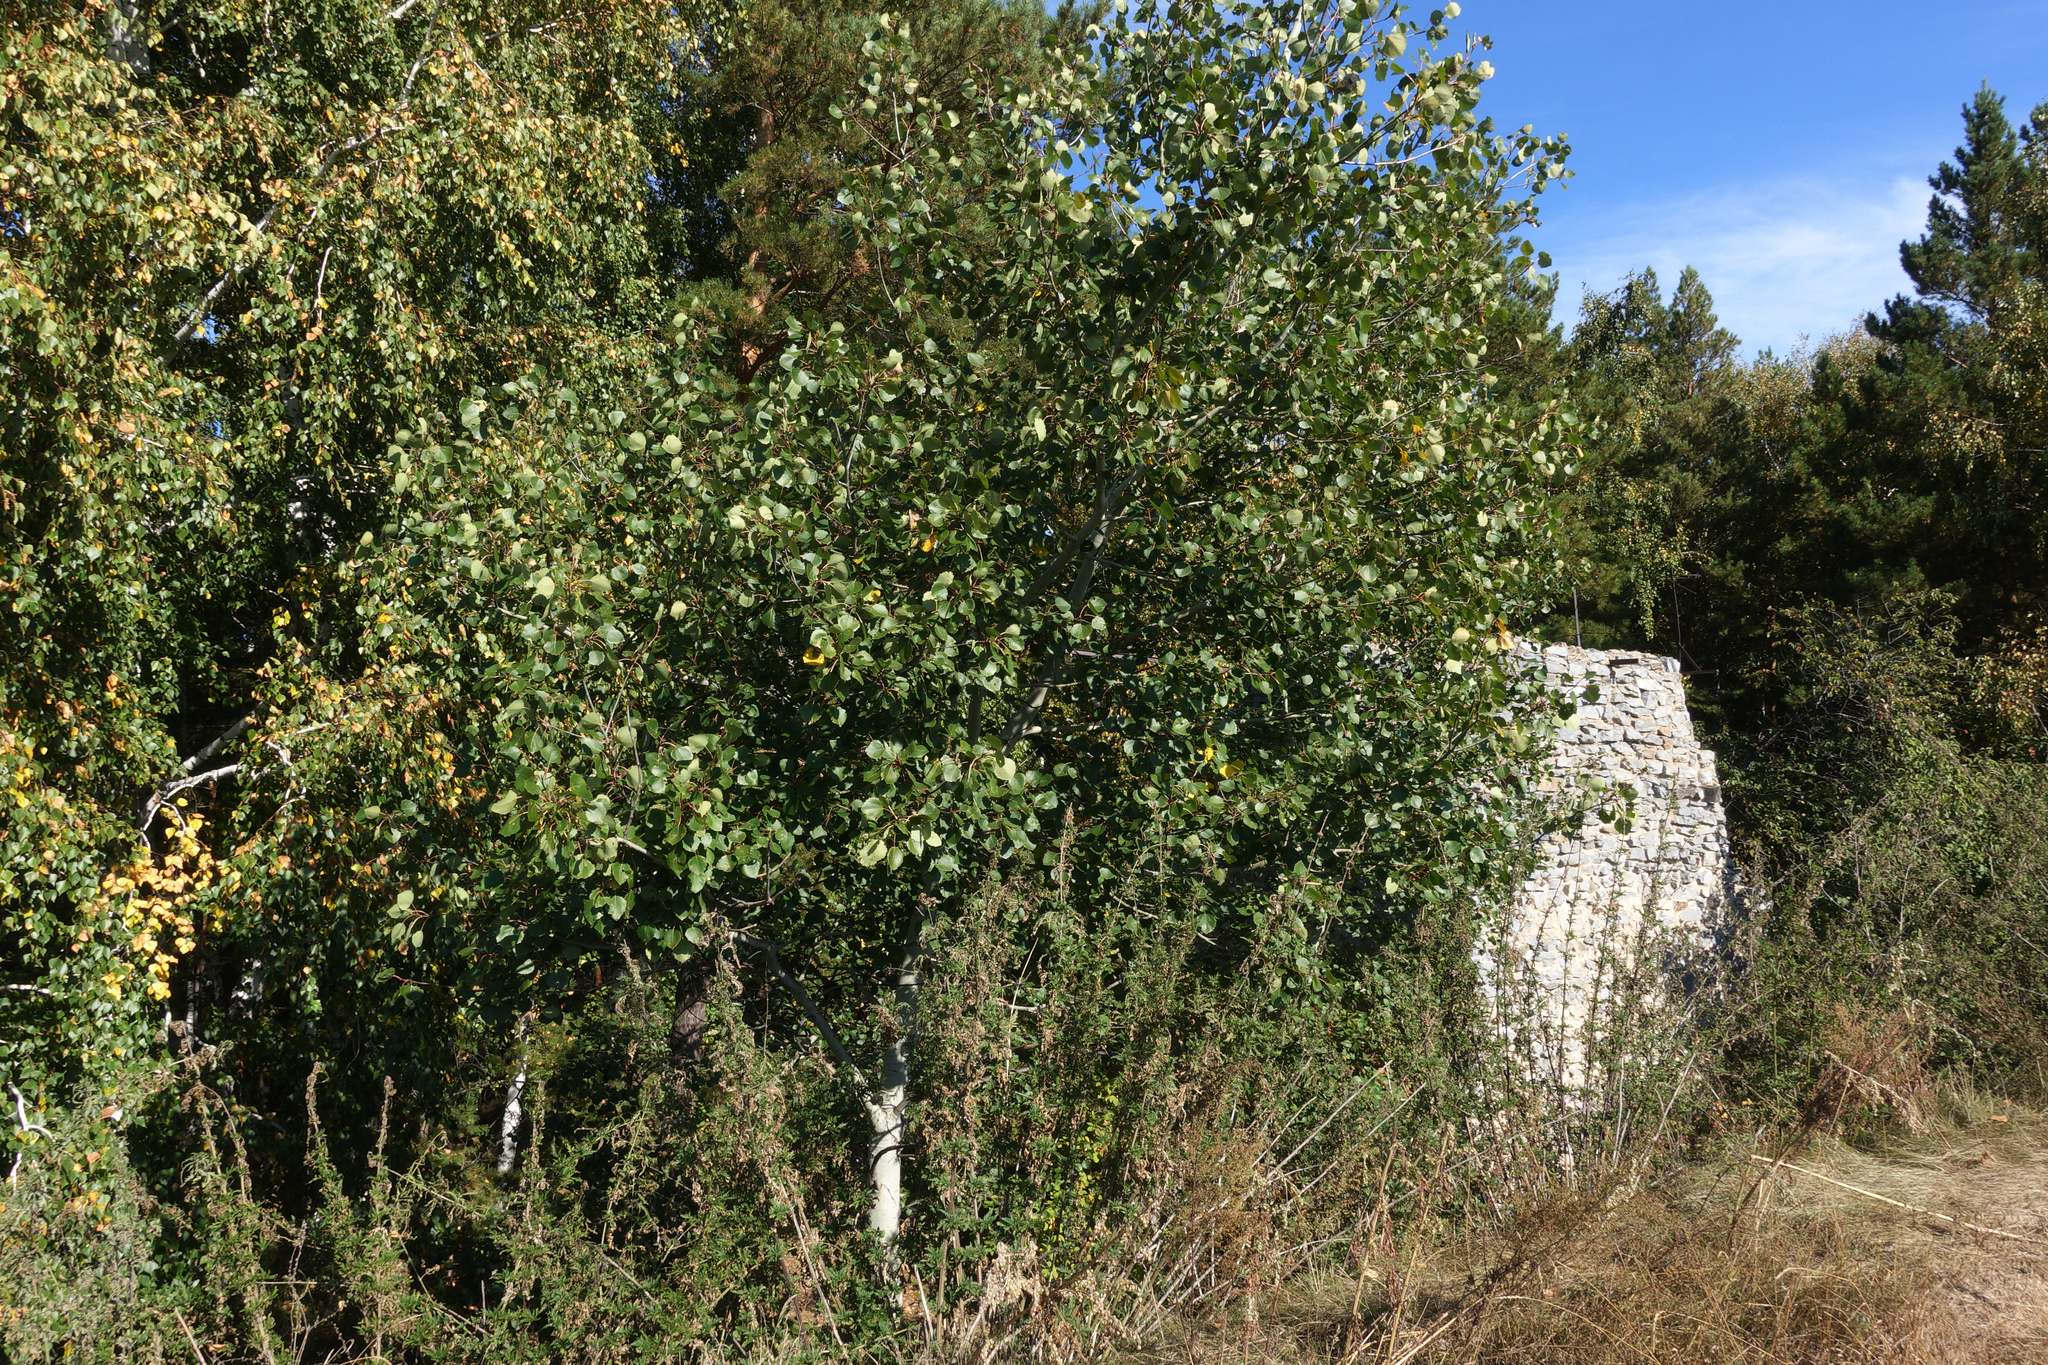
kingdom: Plantae
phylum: Tracheophyta
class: Magnoliopsida
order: Malpighiales
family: Salicaceae
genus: Populus
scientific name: Populus tremula
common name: European aspen
